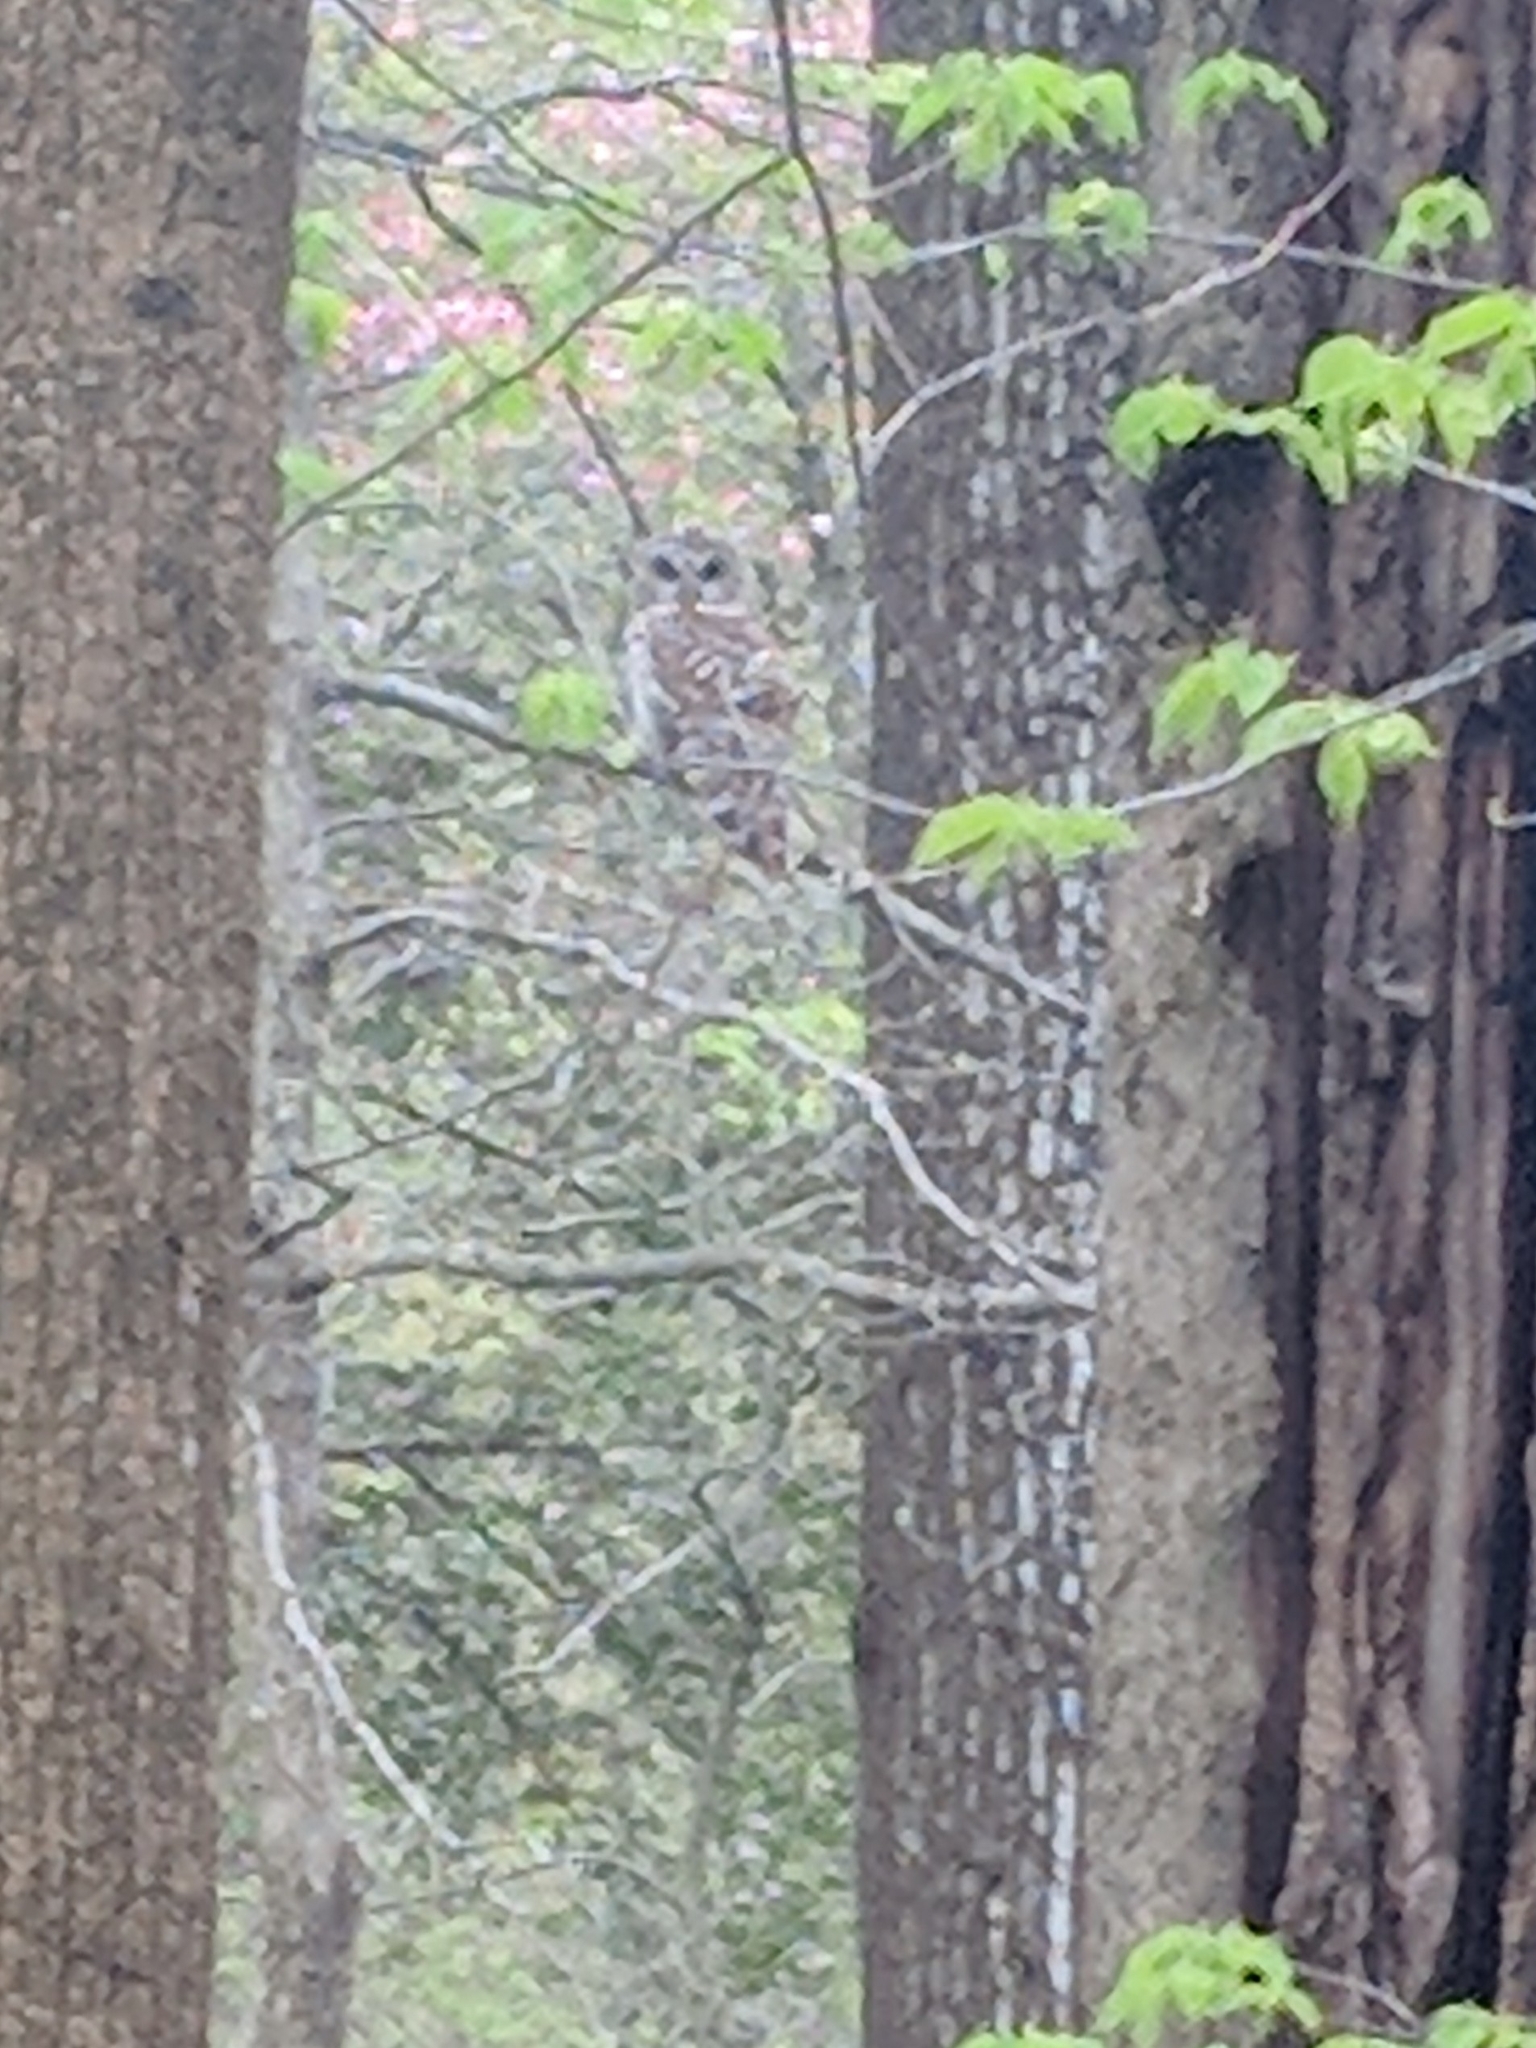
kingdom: Animalia
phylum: Chordata
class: Aves
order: Strigiformes
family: Strigidae
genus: Strix
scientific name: Strix varia
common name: Barred owl
